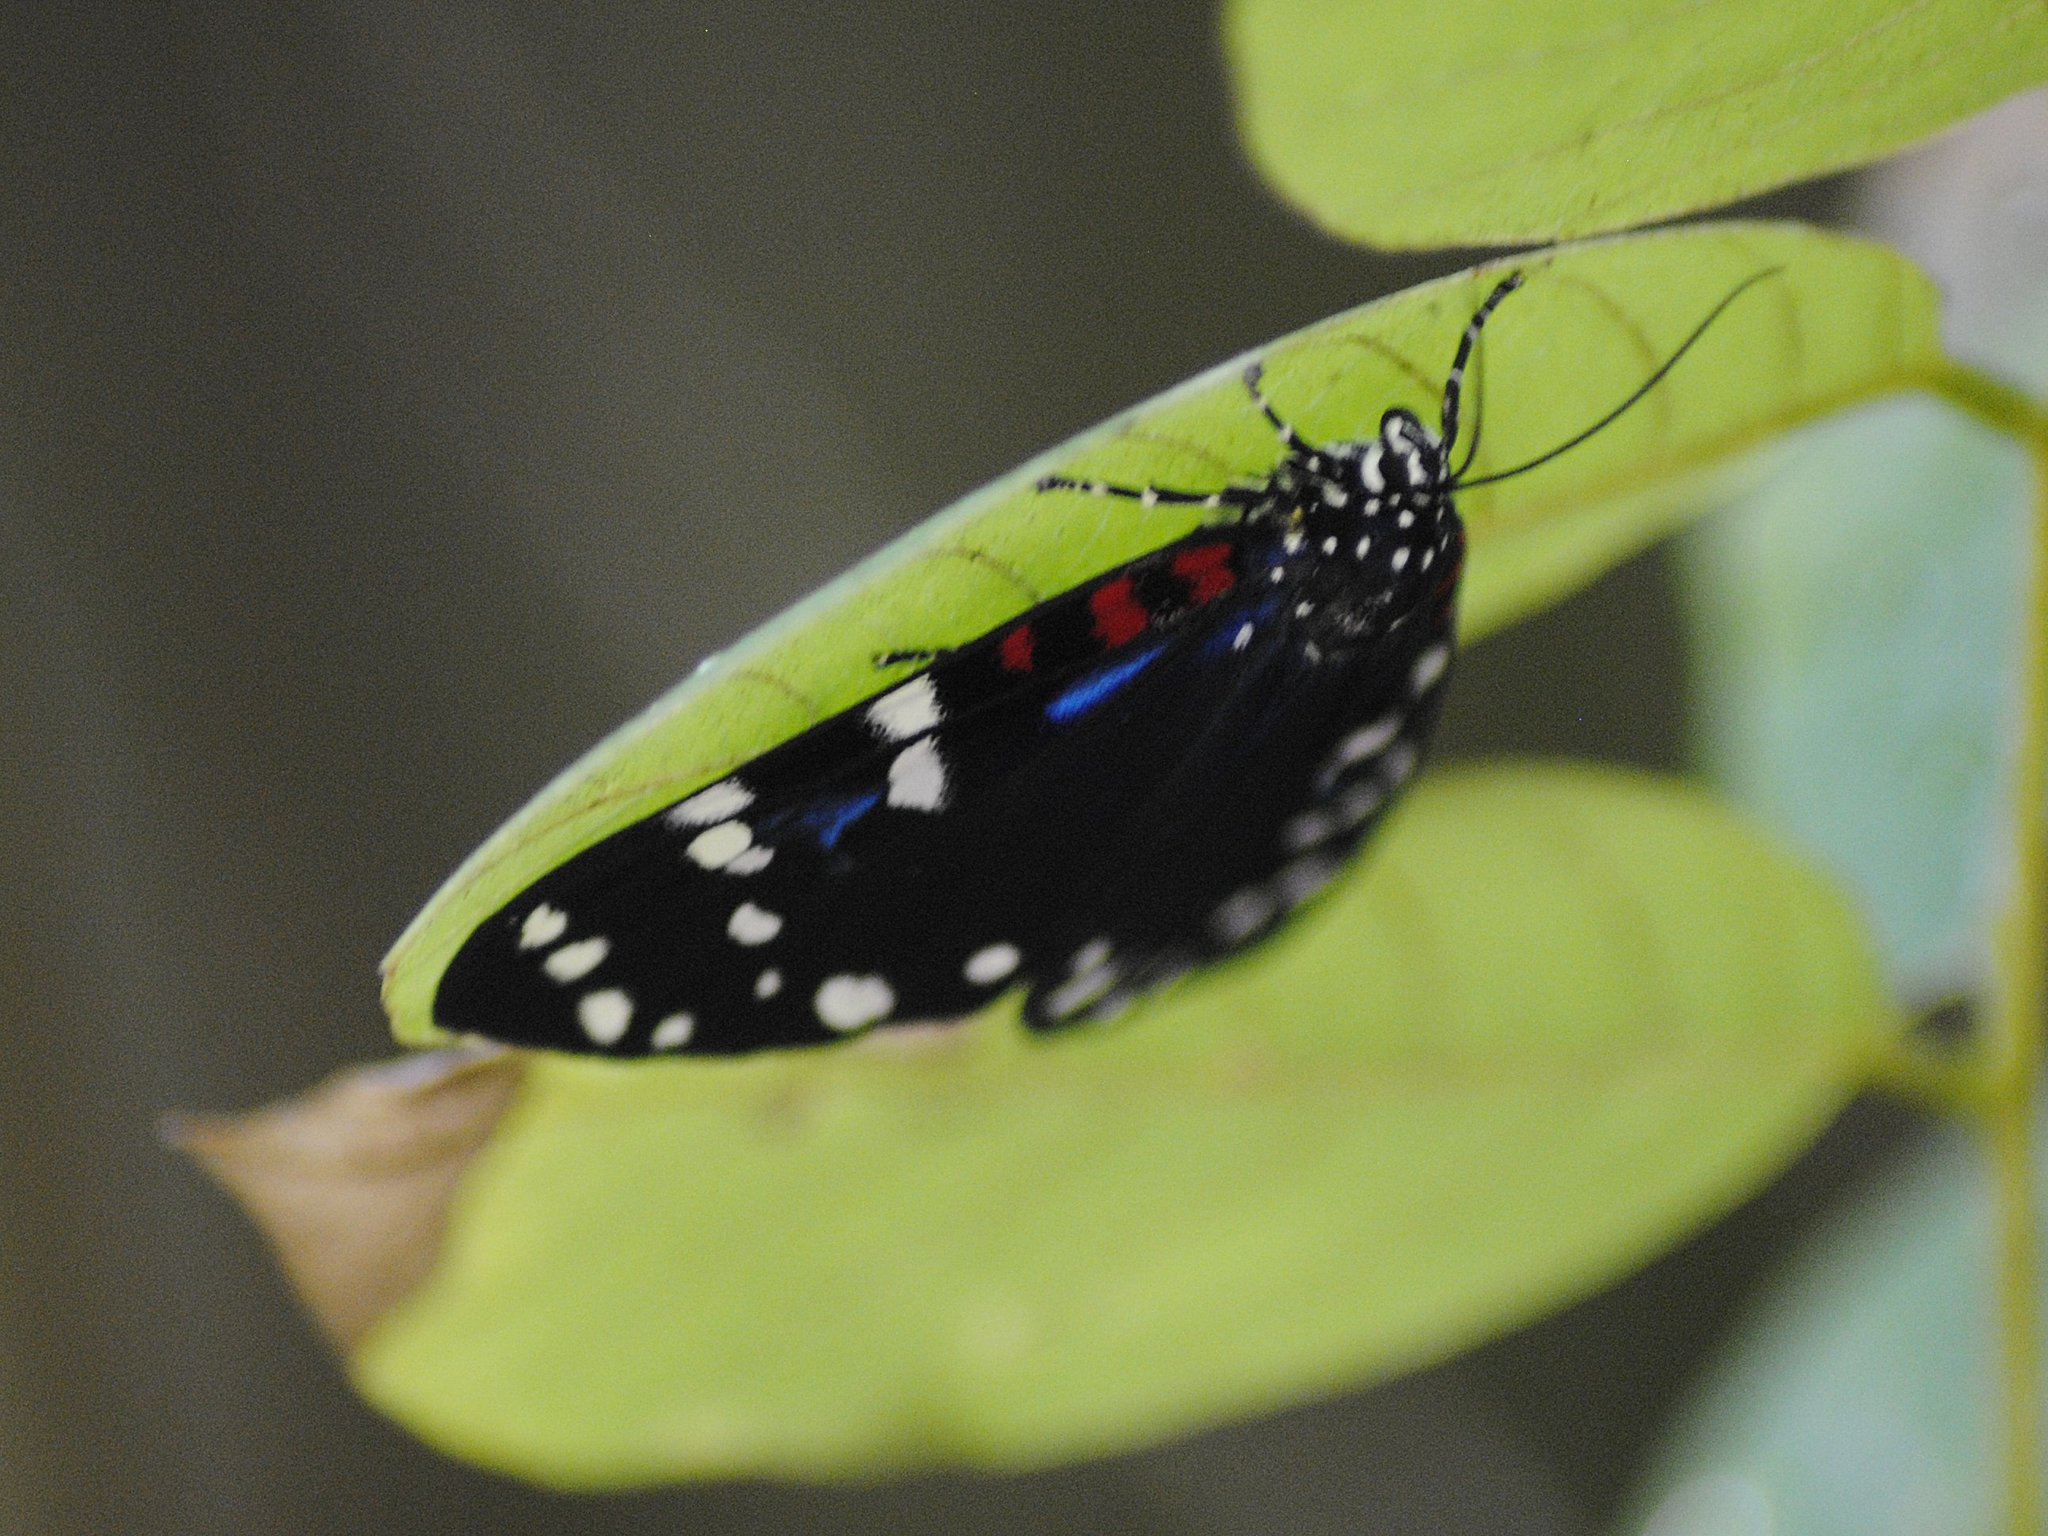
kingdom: Animalia
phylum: Arthropoda
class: Insecta
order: Lepidoptera
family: Erebidae
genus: Composia
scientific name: Composia fidelissima
